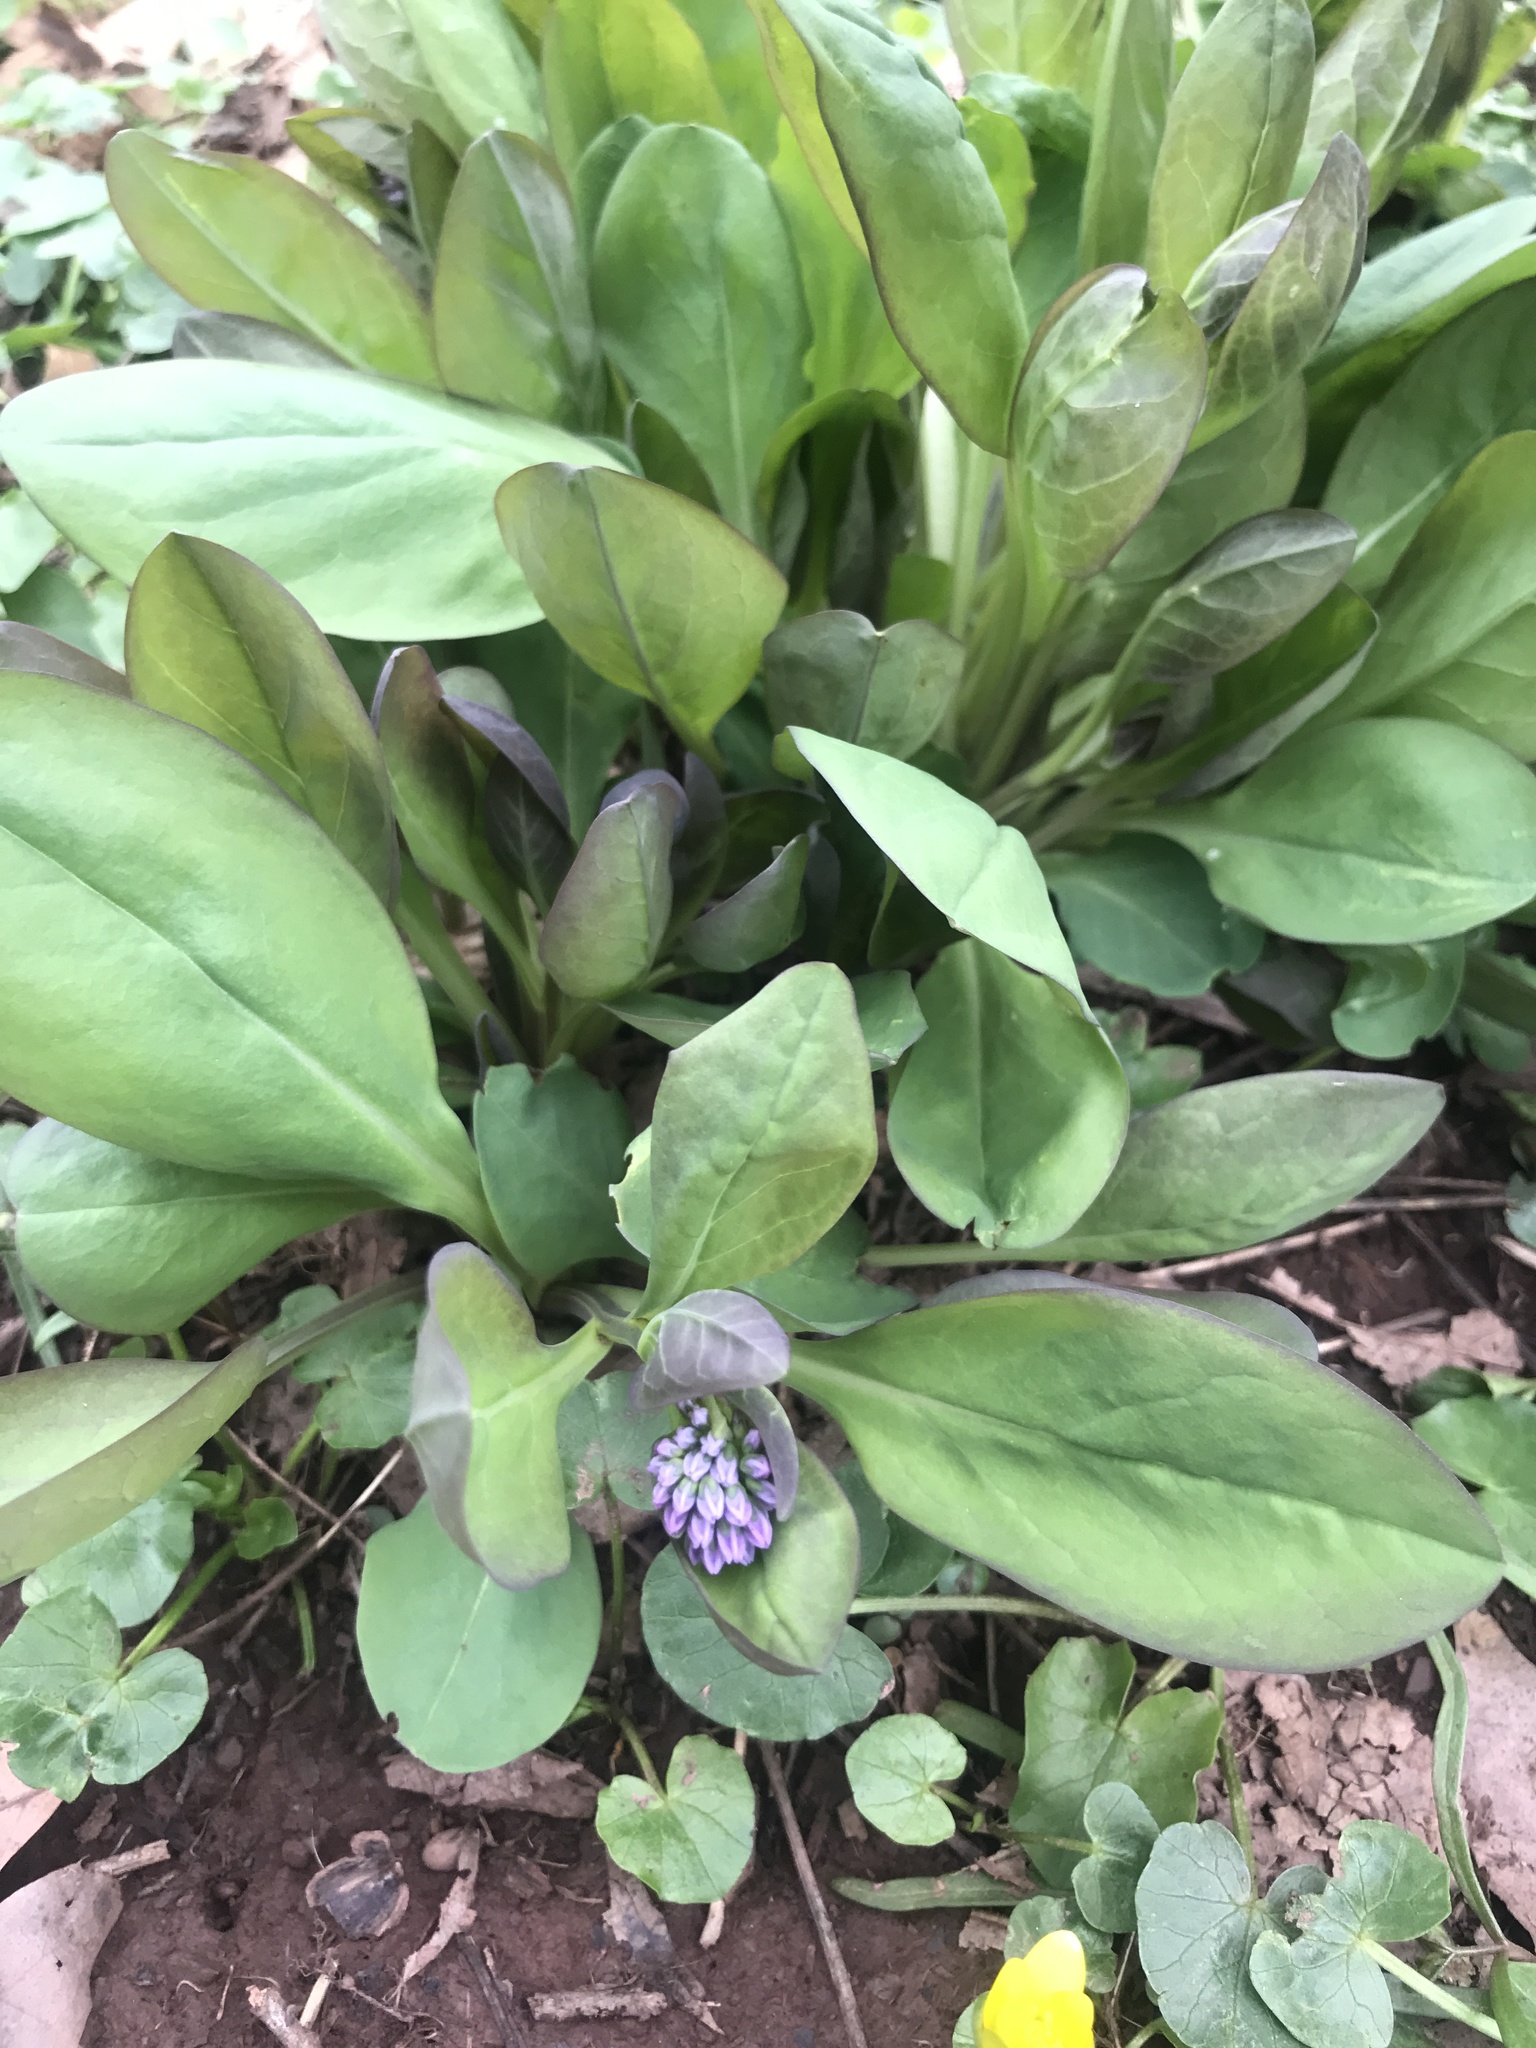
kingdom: Plantae
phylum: Tracheophyta
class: Magnoliopsida
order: Boraginales
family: Boraginaceae
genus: Mertensia
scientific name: Mertensia virginica
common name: Virginia bluebells
